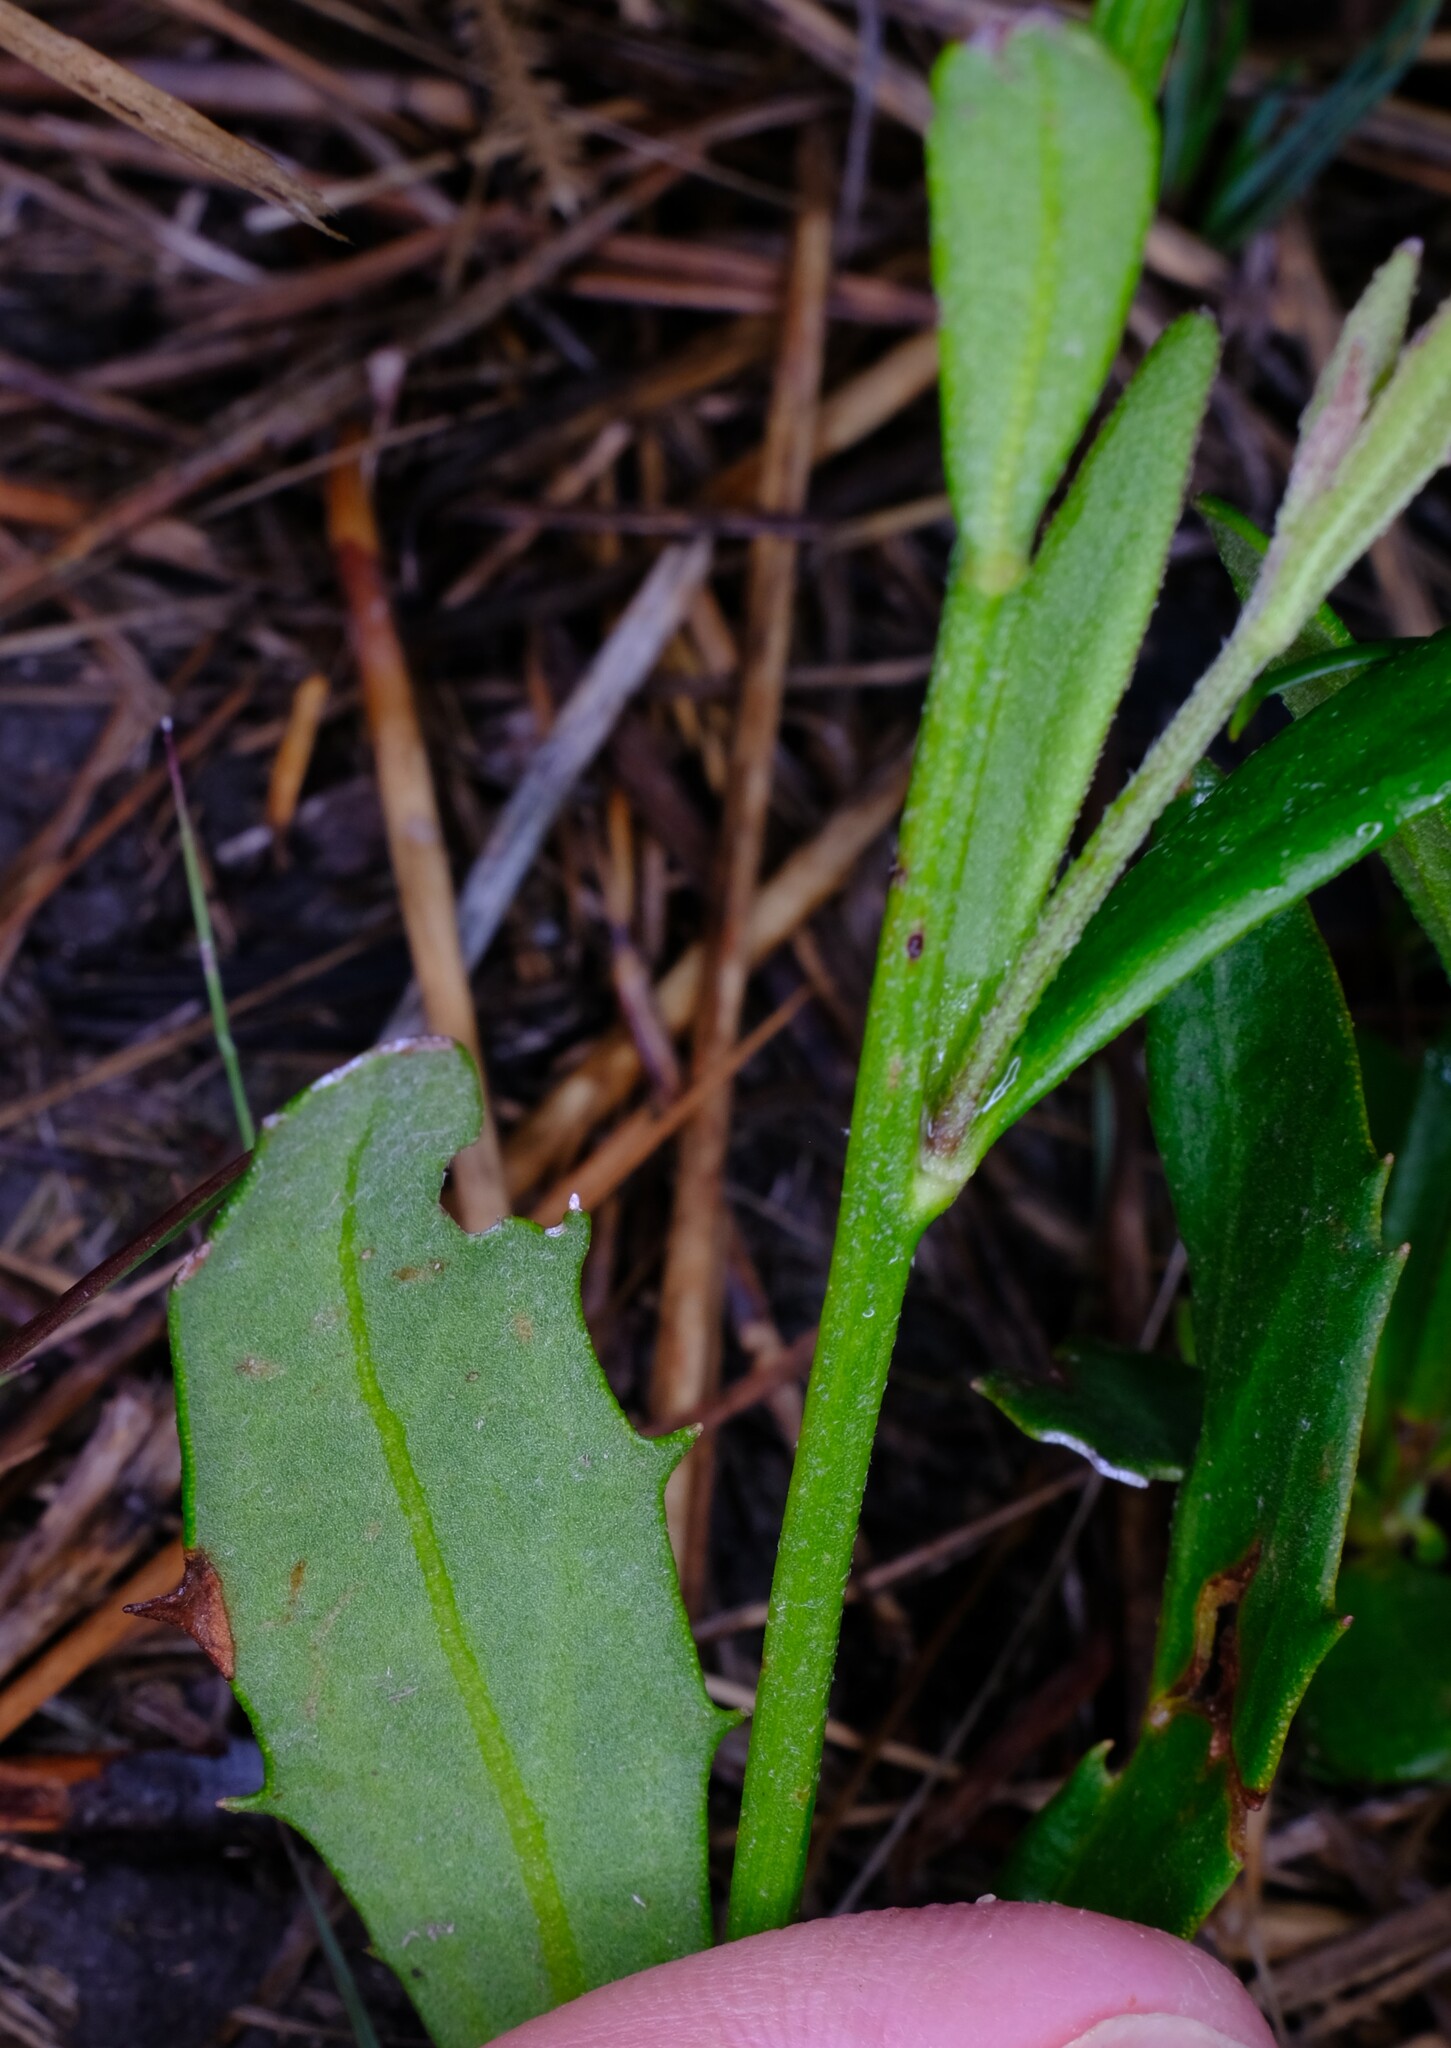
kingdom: Plantae
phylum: Tracheophyta
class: Magnoliopsida
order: Asterales
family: Goodeniaceae
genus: Dampiera
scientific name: Dampiera stricta
